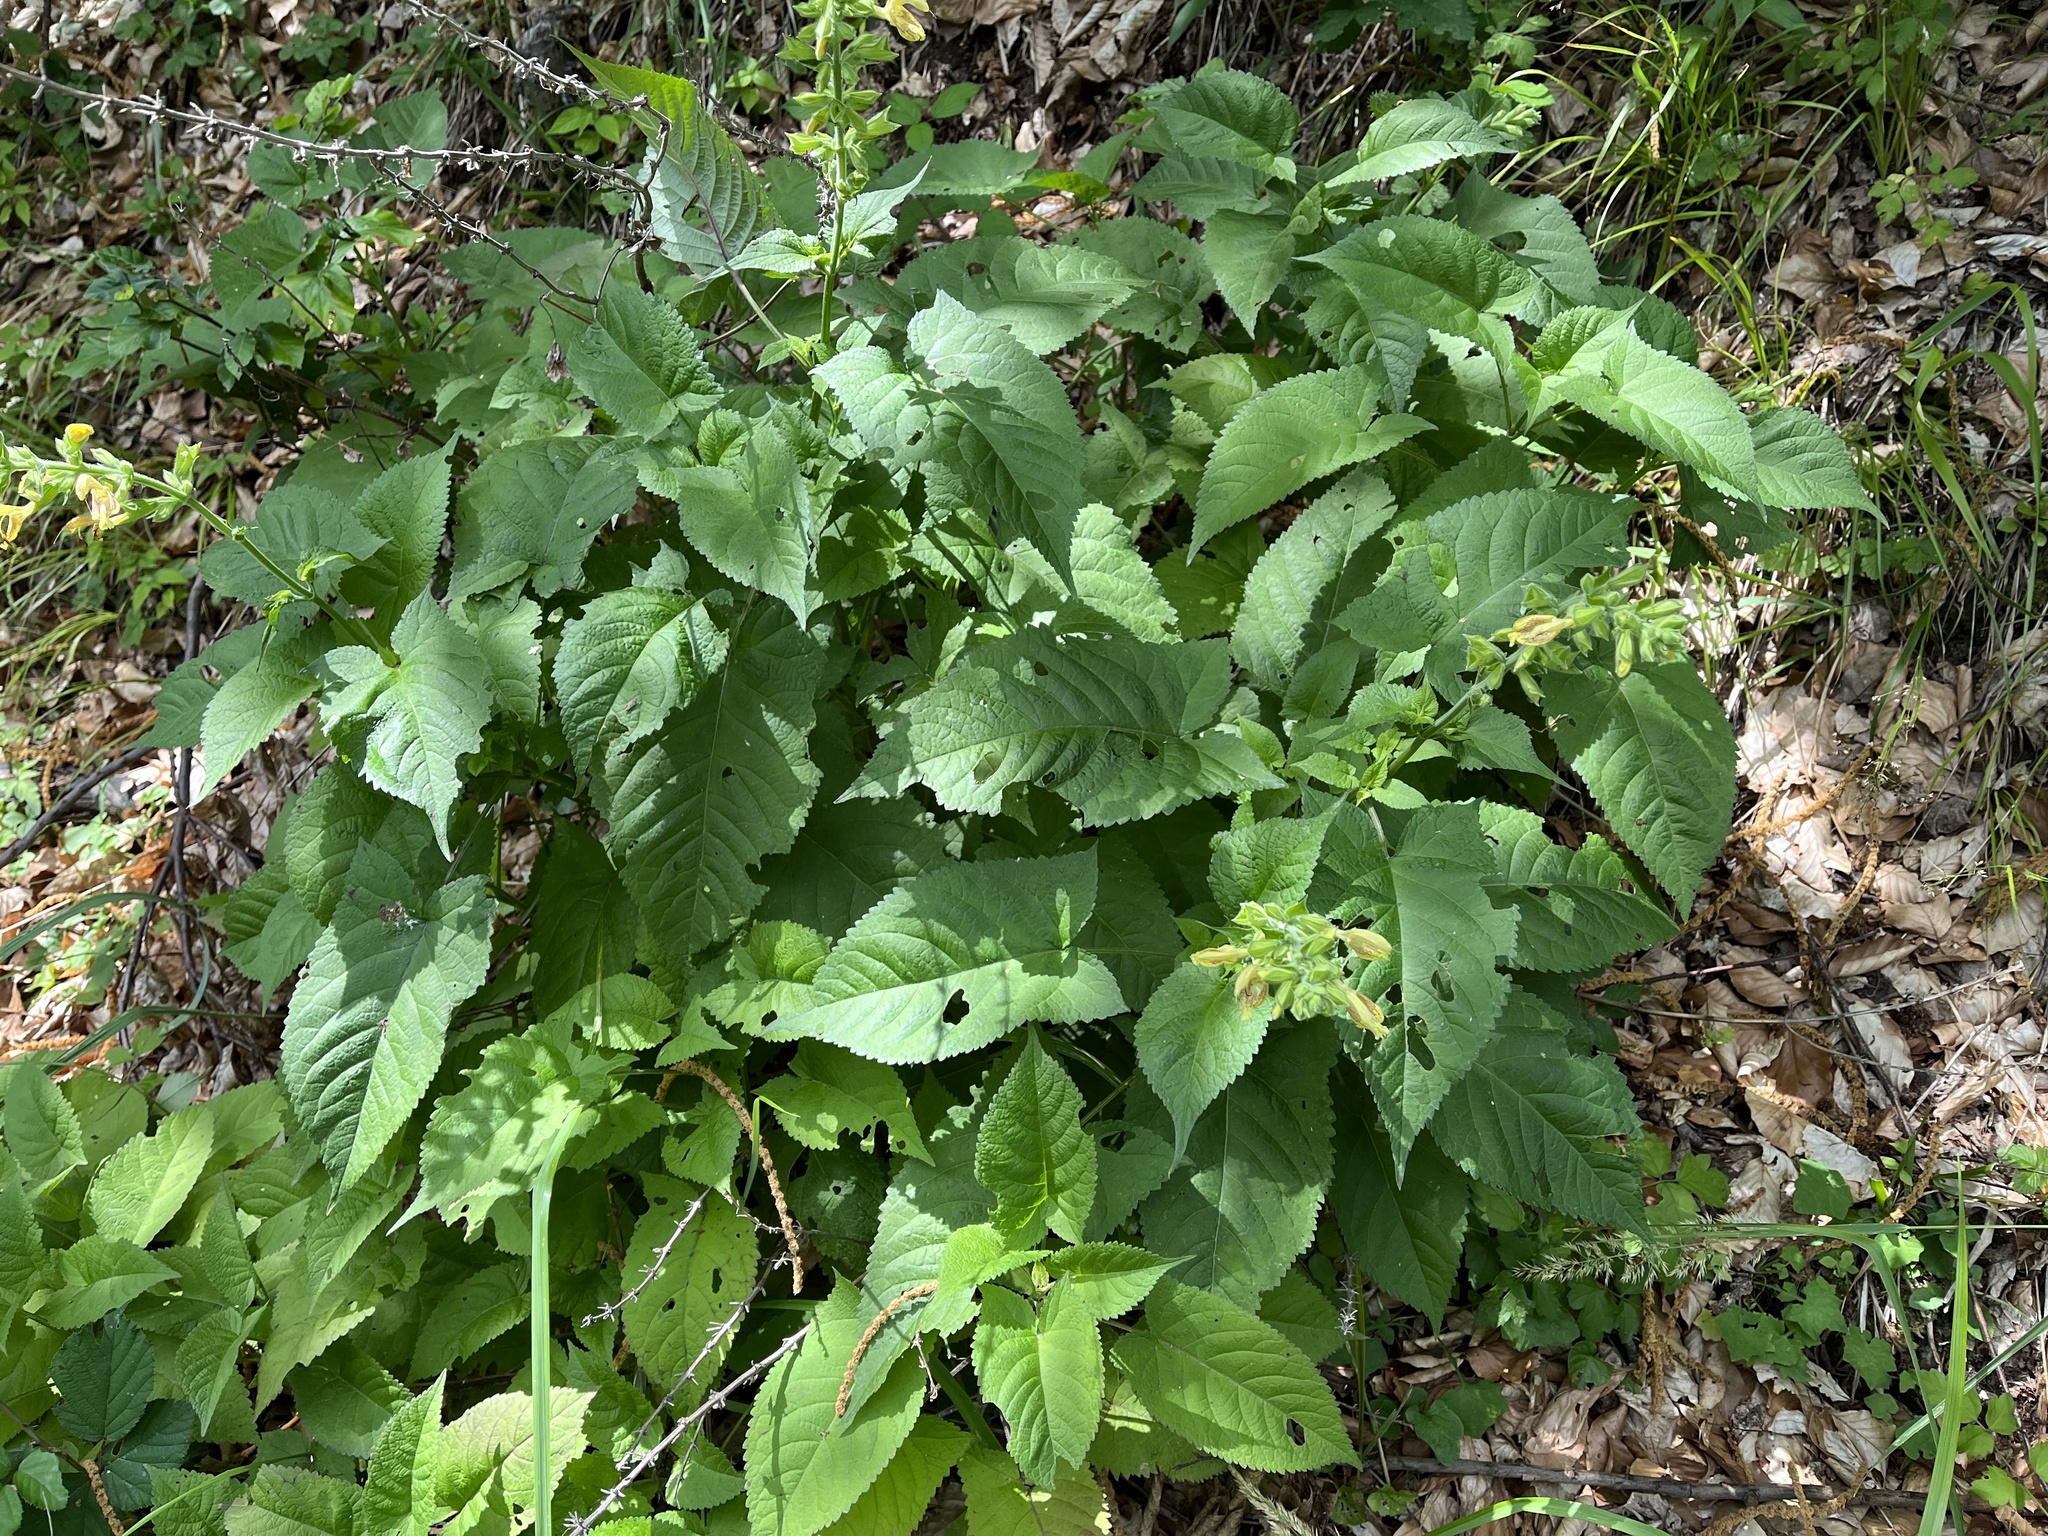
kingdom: Plantae
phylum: Tracheophyta
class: Magnoliopsida
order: Lamiales
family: Lamiaceae
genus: Salvia
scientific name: Salvia glutinosa
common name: Sticky clary
